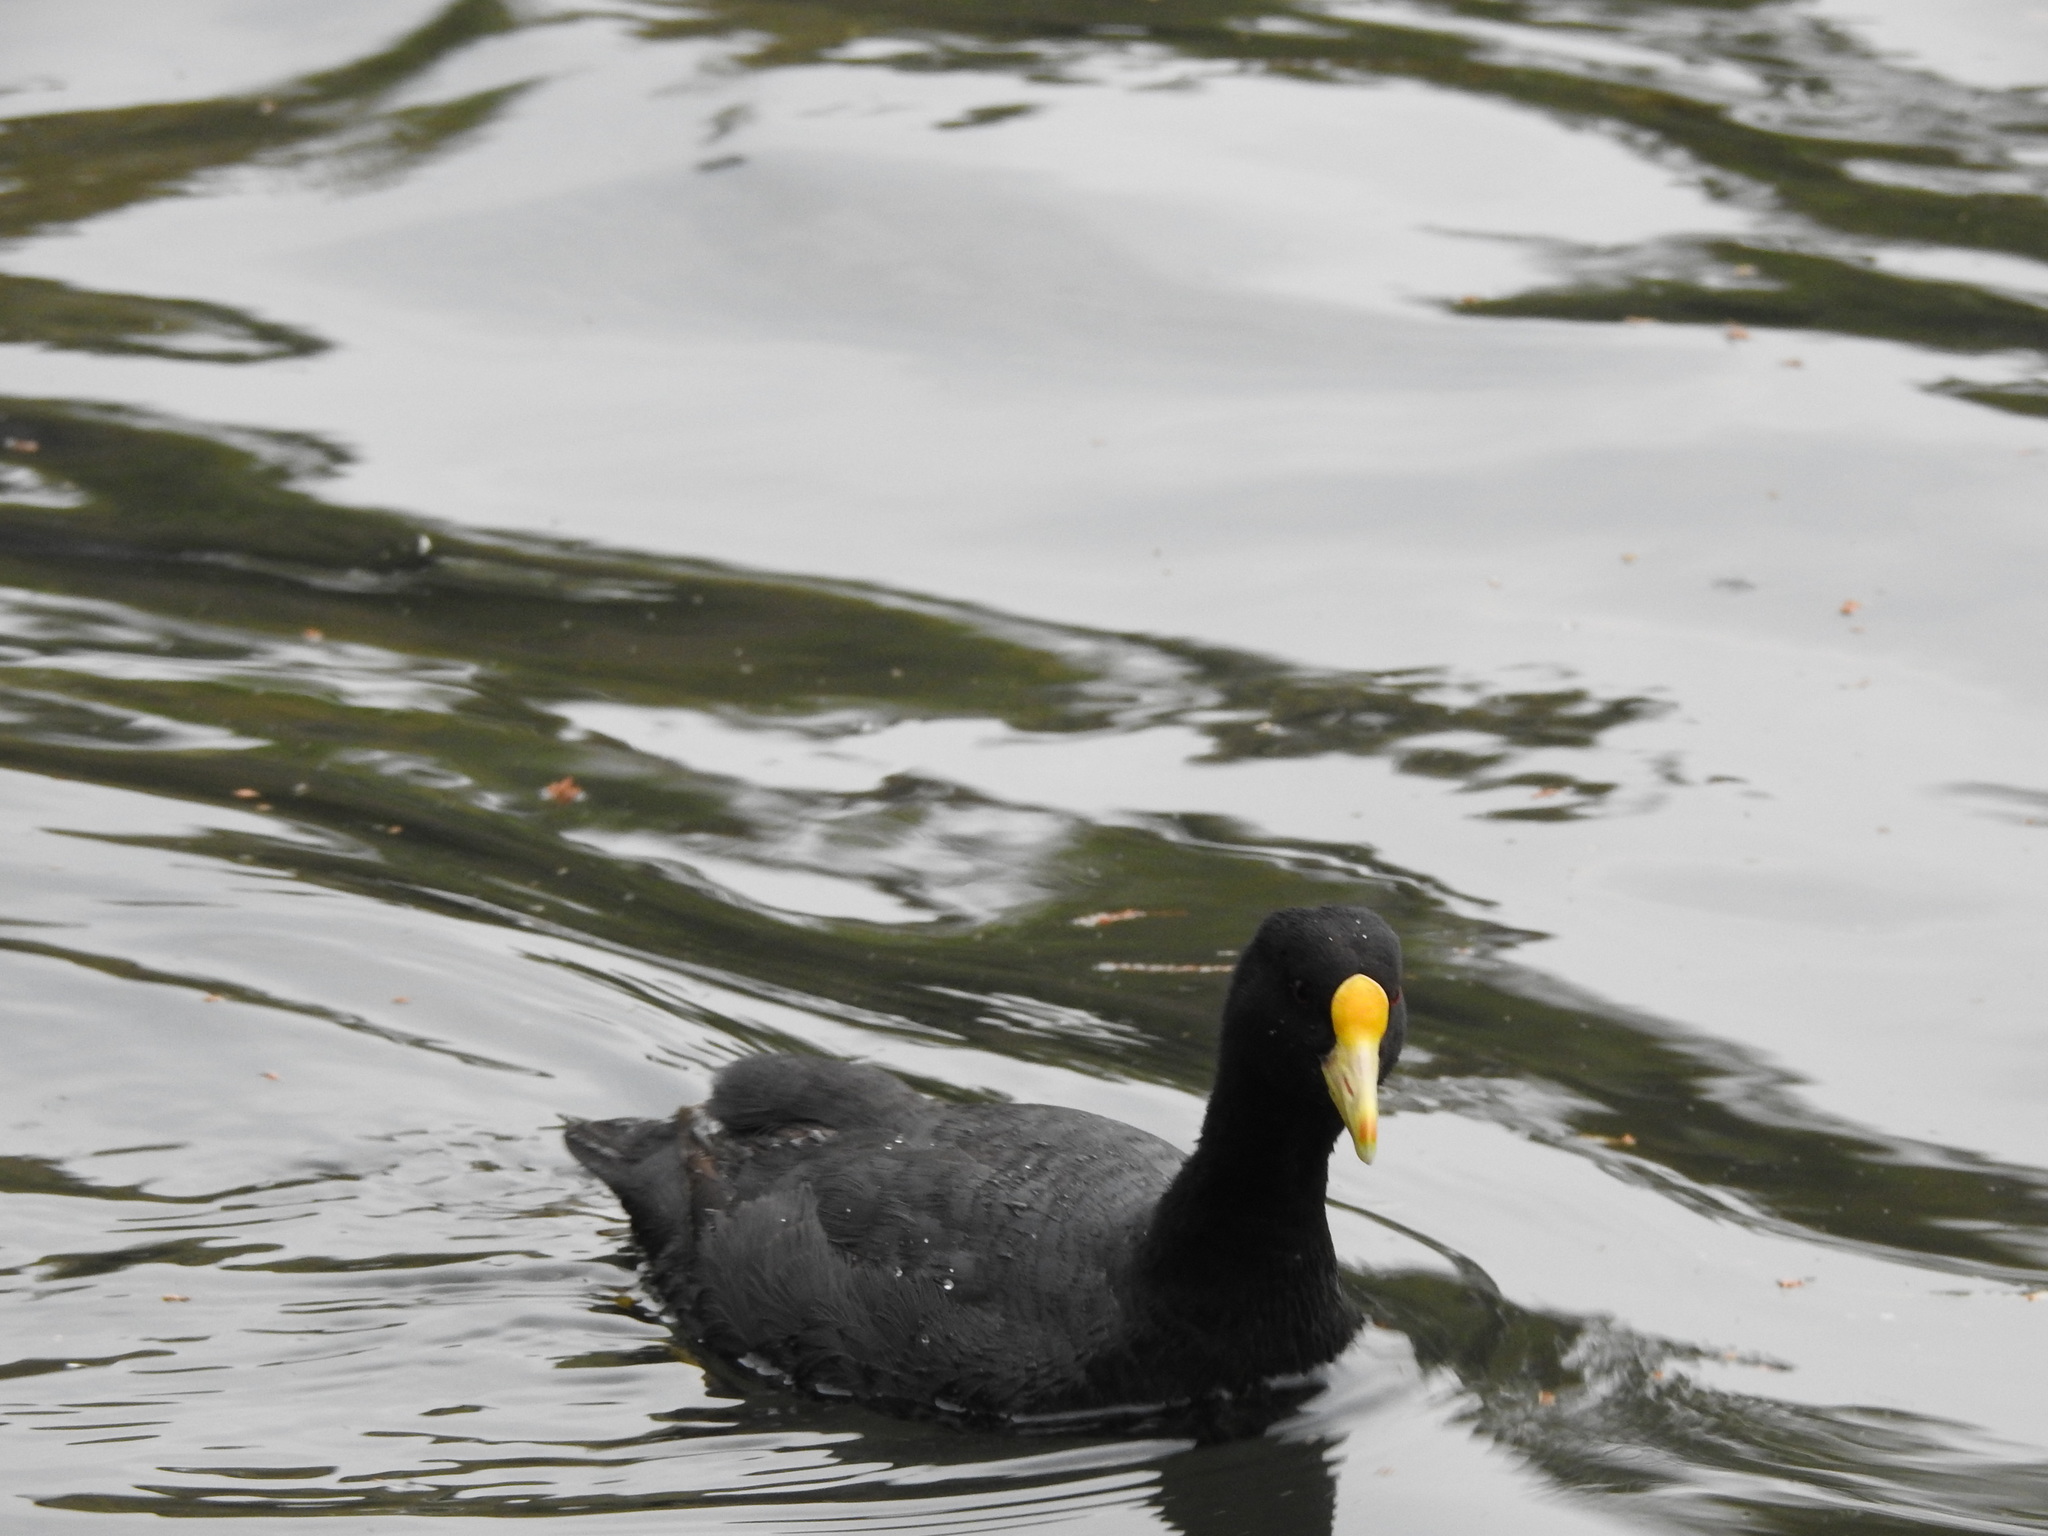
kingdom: Animalia
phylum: Chordata
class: Aves
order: Gruiformes
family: Rallidae
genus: Fulica
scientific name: Fulica leucoptera
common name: White-winged coot
